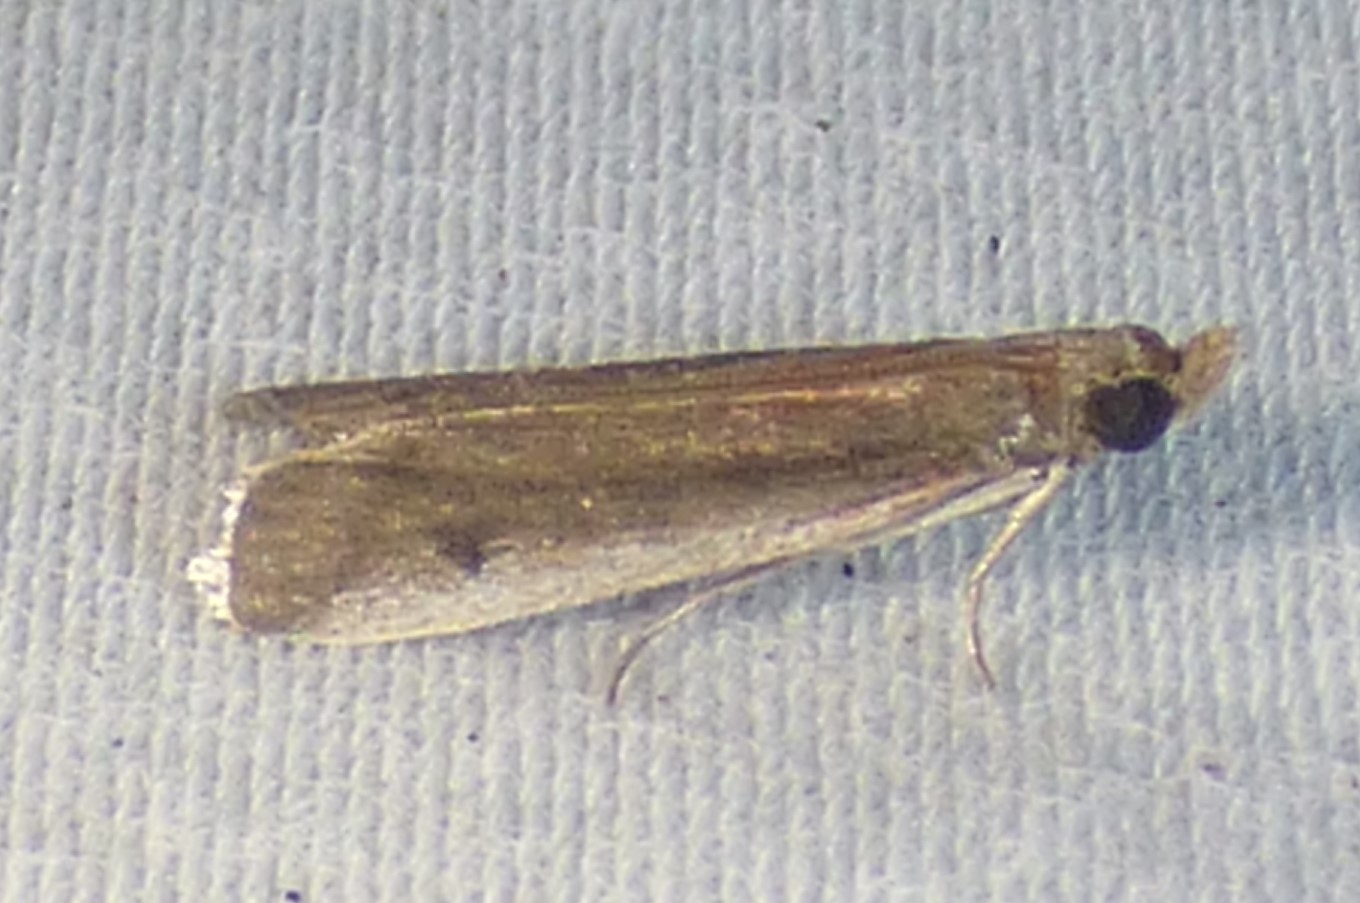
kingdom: Animalia
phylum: Arthropoda
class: Insecta
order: Lepidoptera
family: Pyralidae
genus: Atascosa
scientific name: Atascosa glareosella
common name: Rosy atascosa moth
